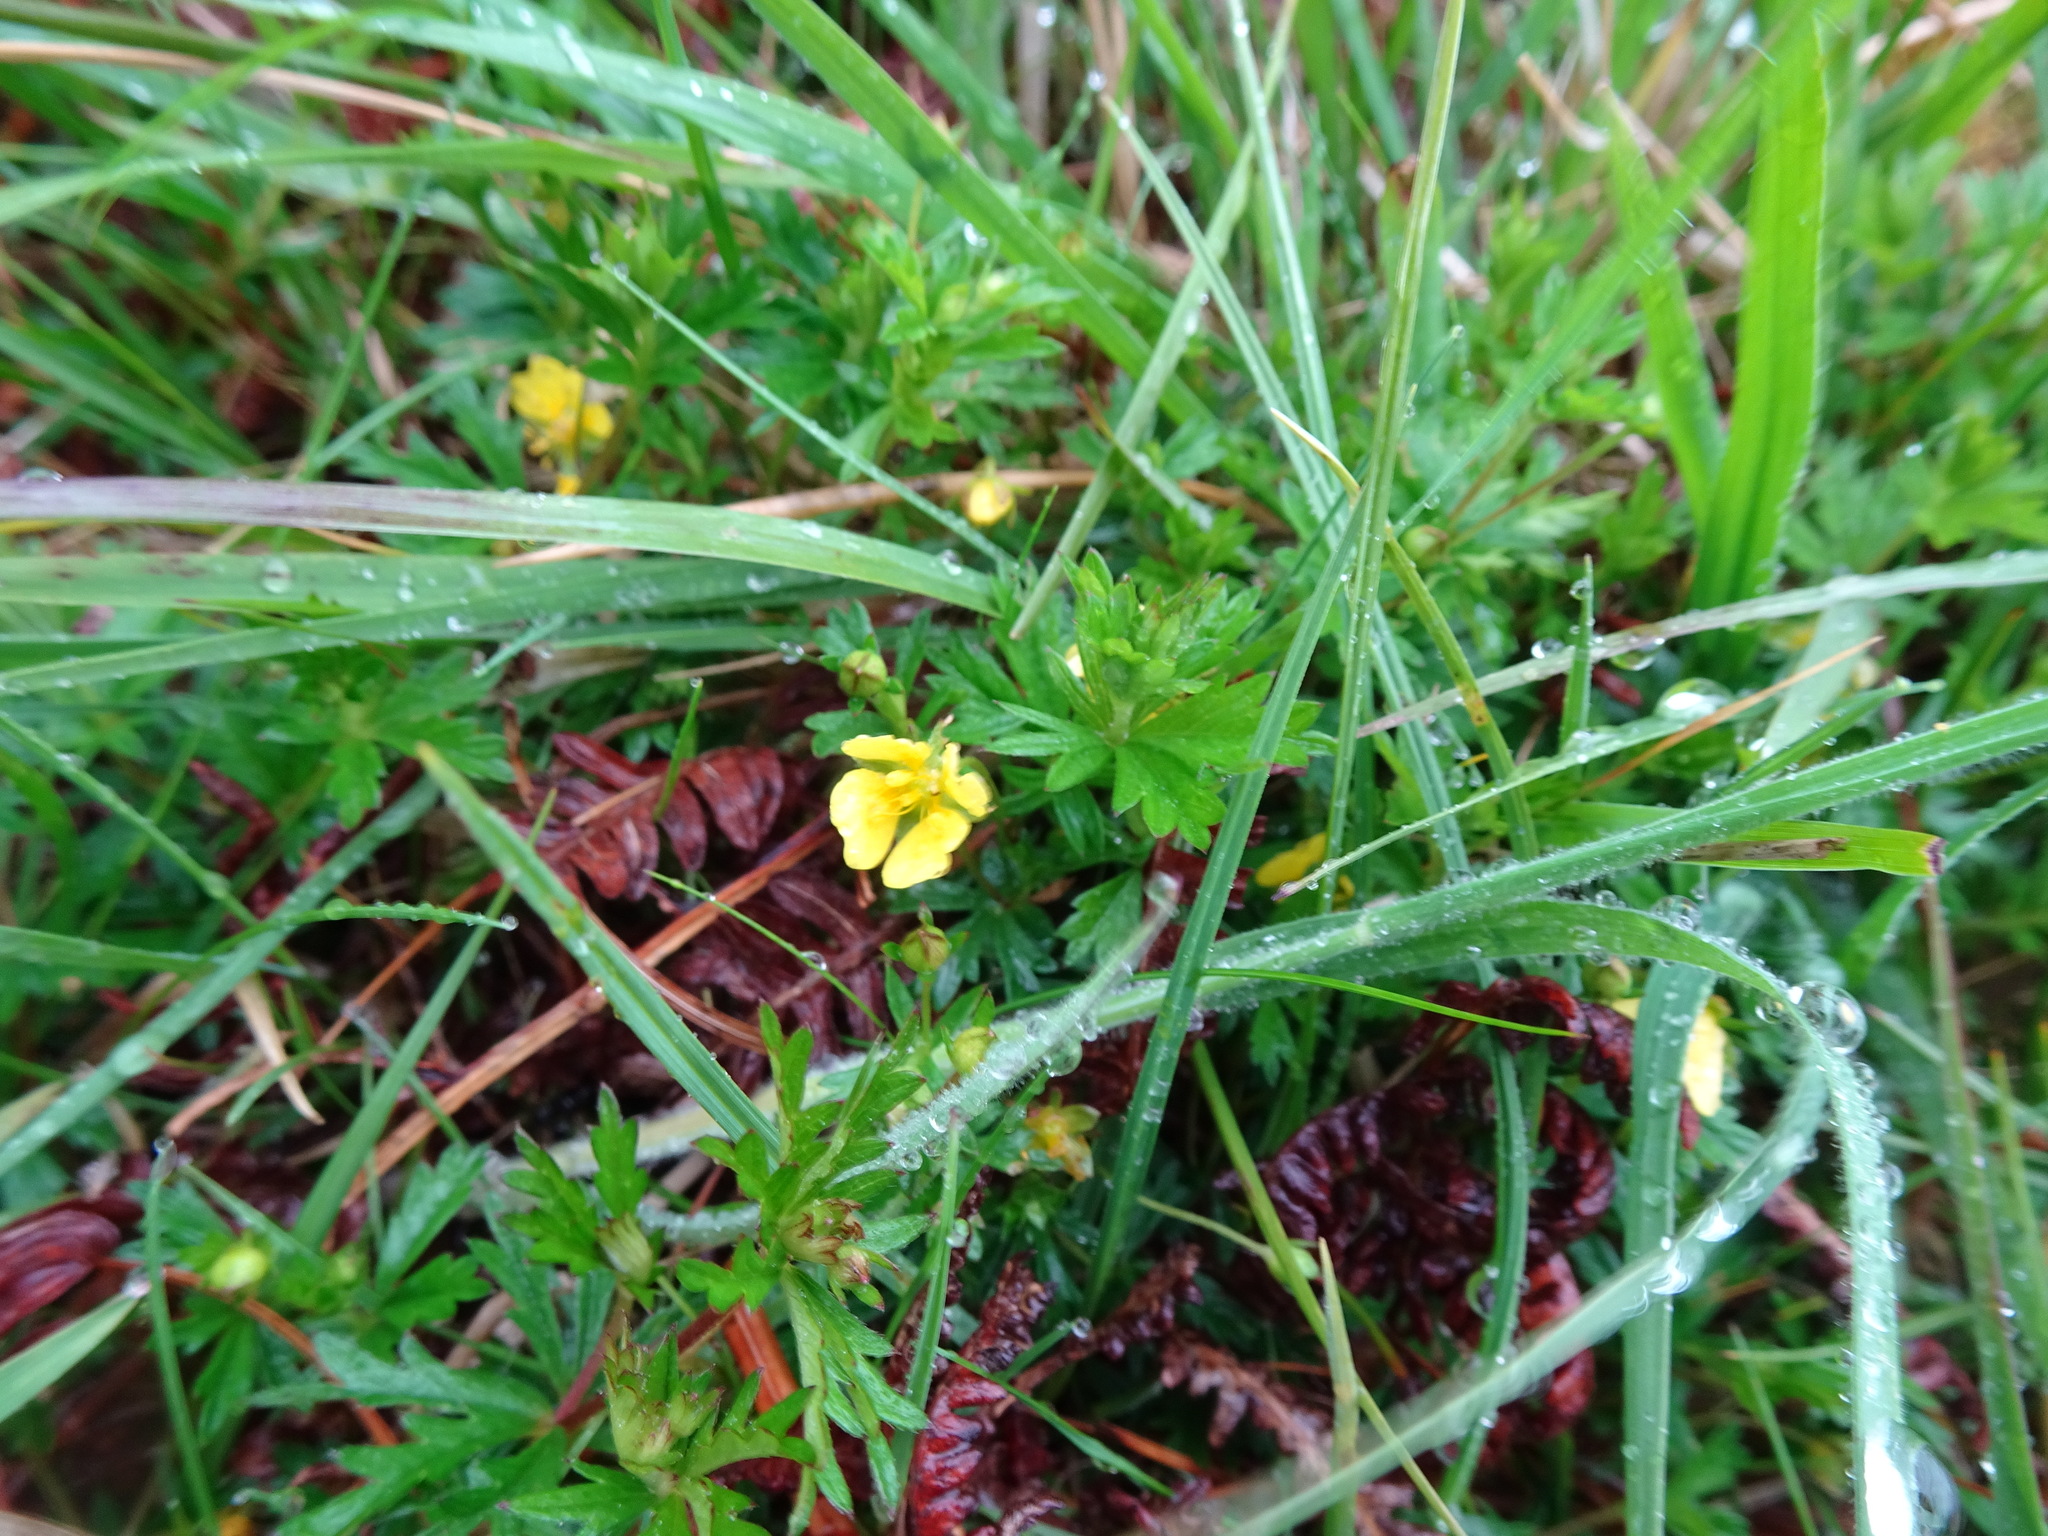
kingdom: Plantae
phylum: Tracheophyta
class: Magnoliopsida
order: Rosales
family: Rosaceae
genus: Potentilla
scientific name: Potentilla erecta
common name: Tormentil
